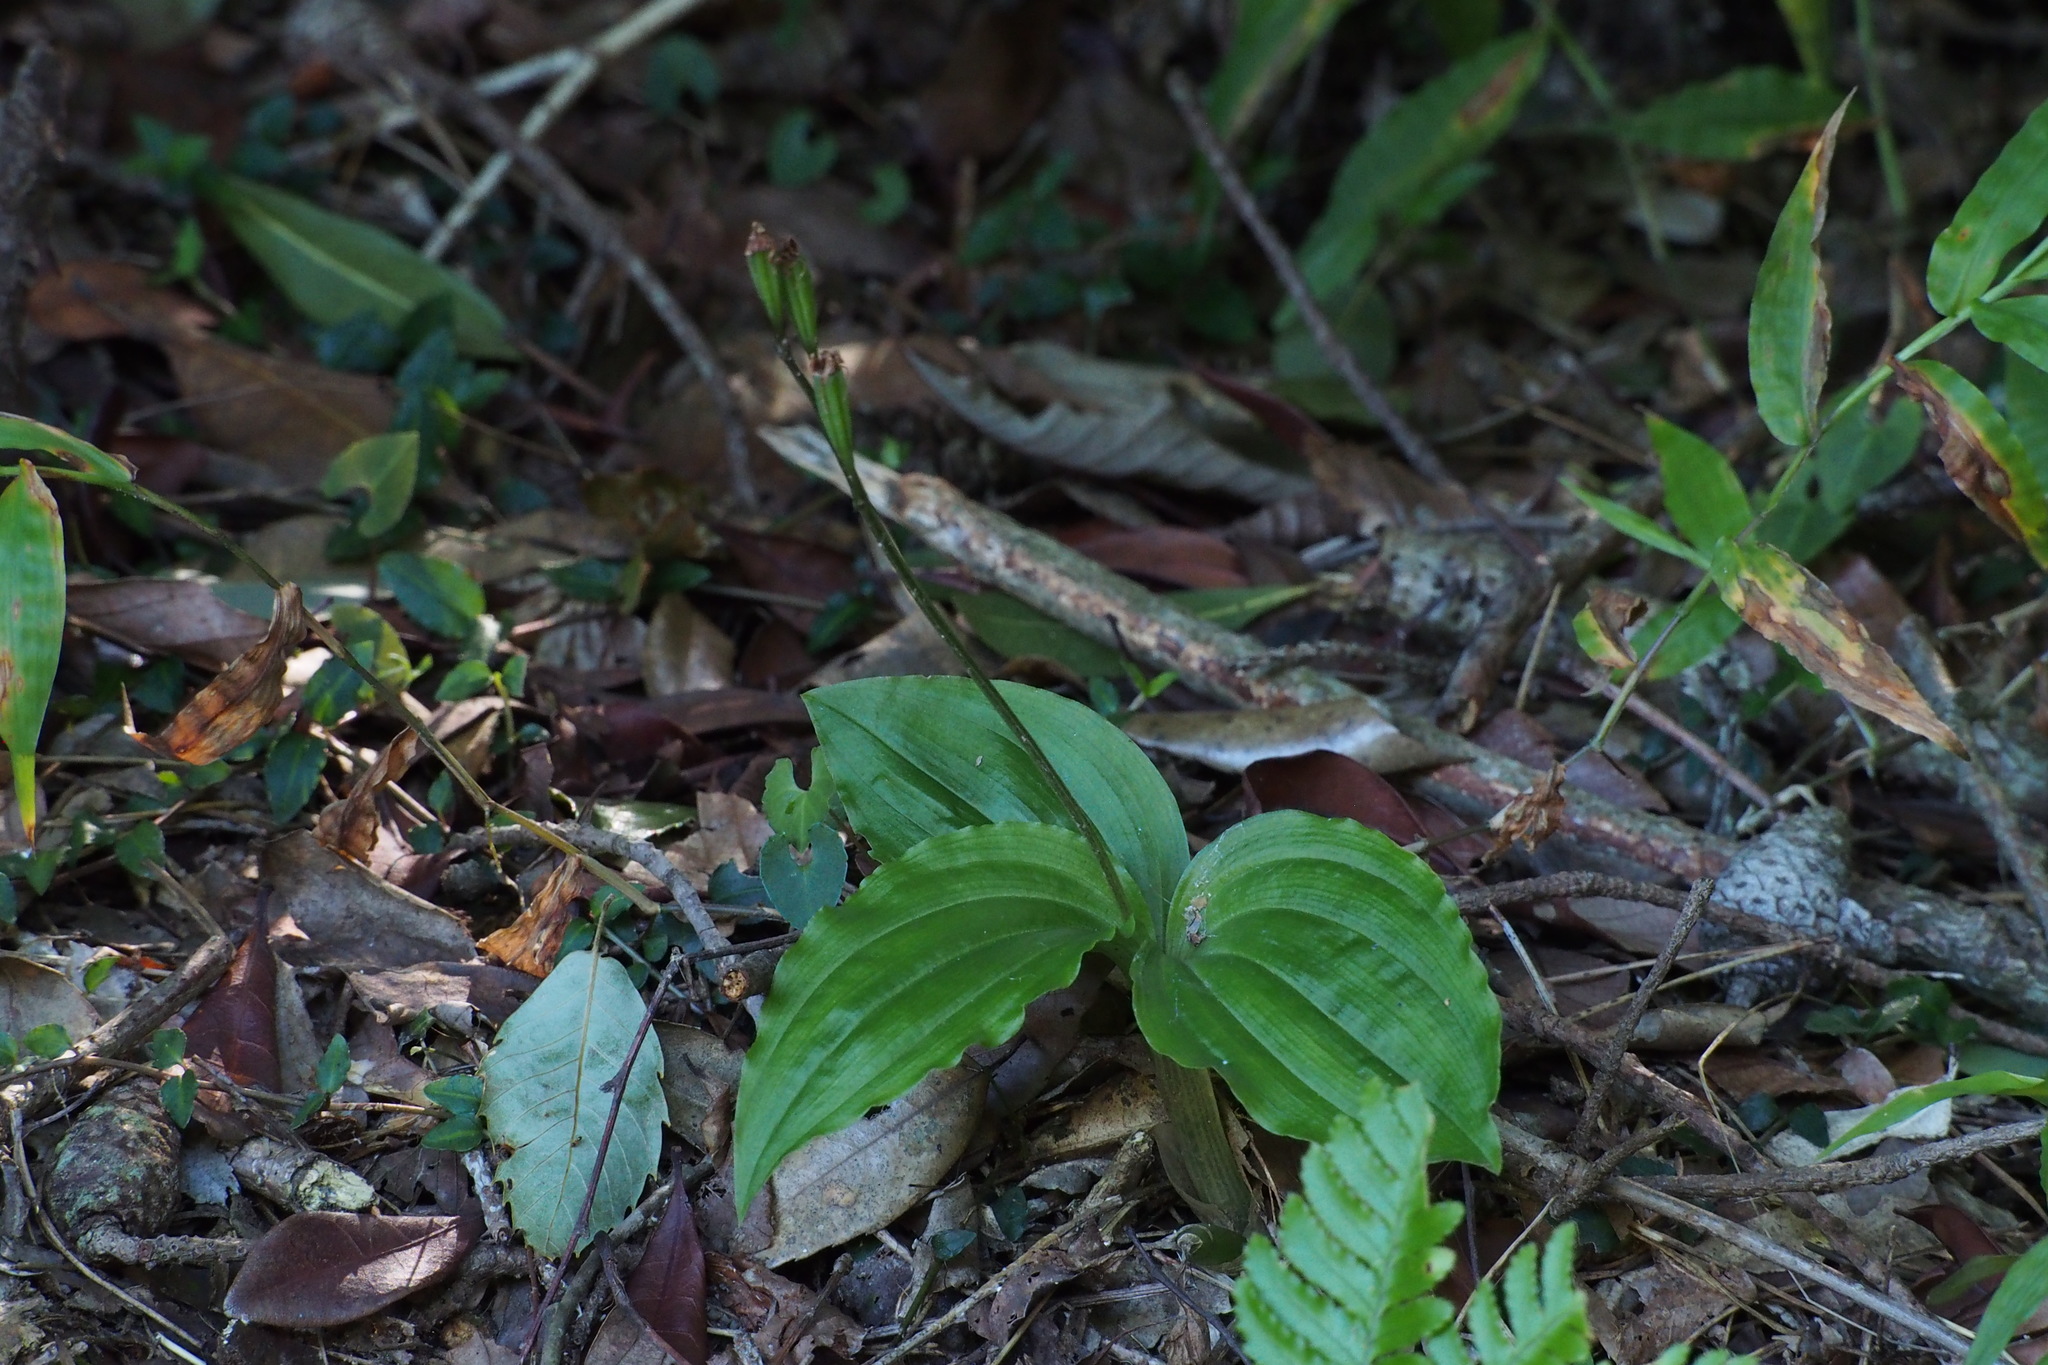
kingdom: Plantae
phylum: Tracheophyta
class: Liliopsida
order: Asparagales
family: Orchidaceae
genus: Liparis
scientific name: Liparis nervosa
